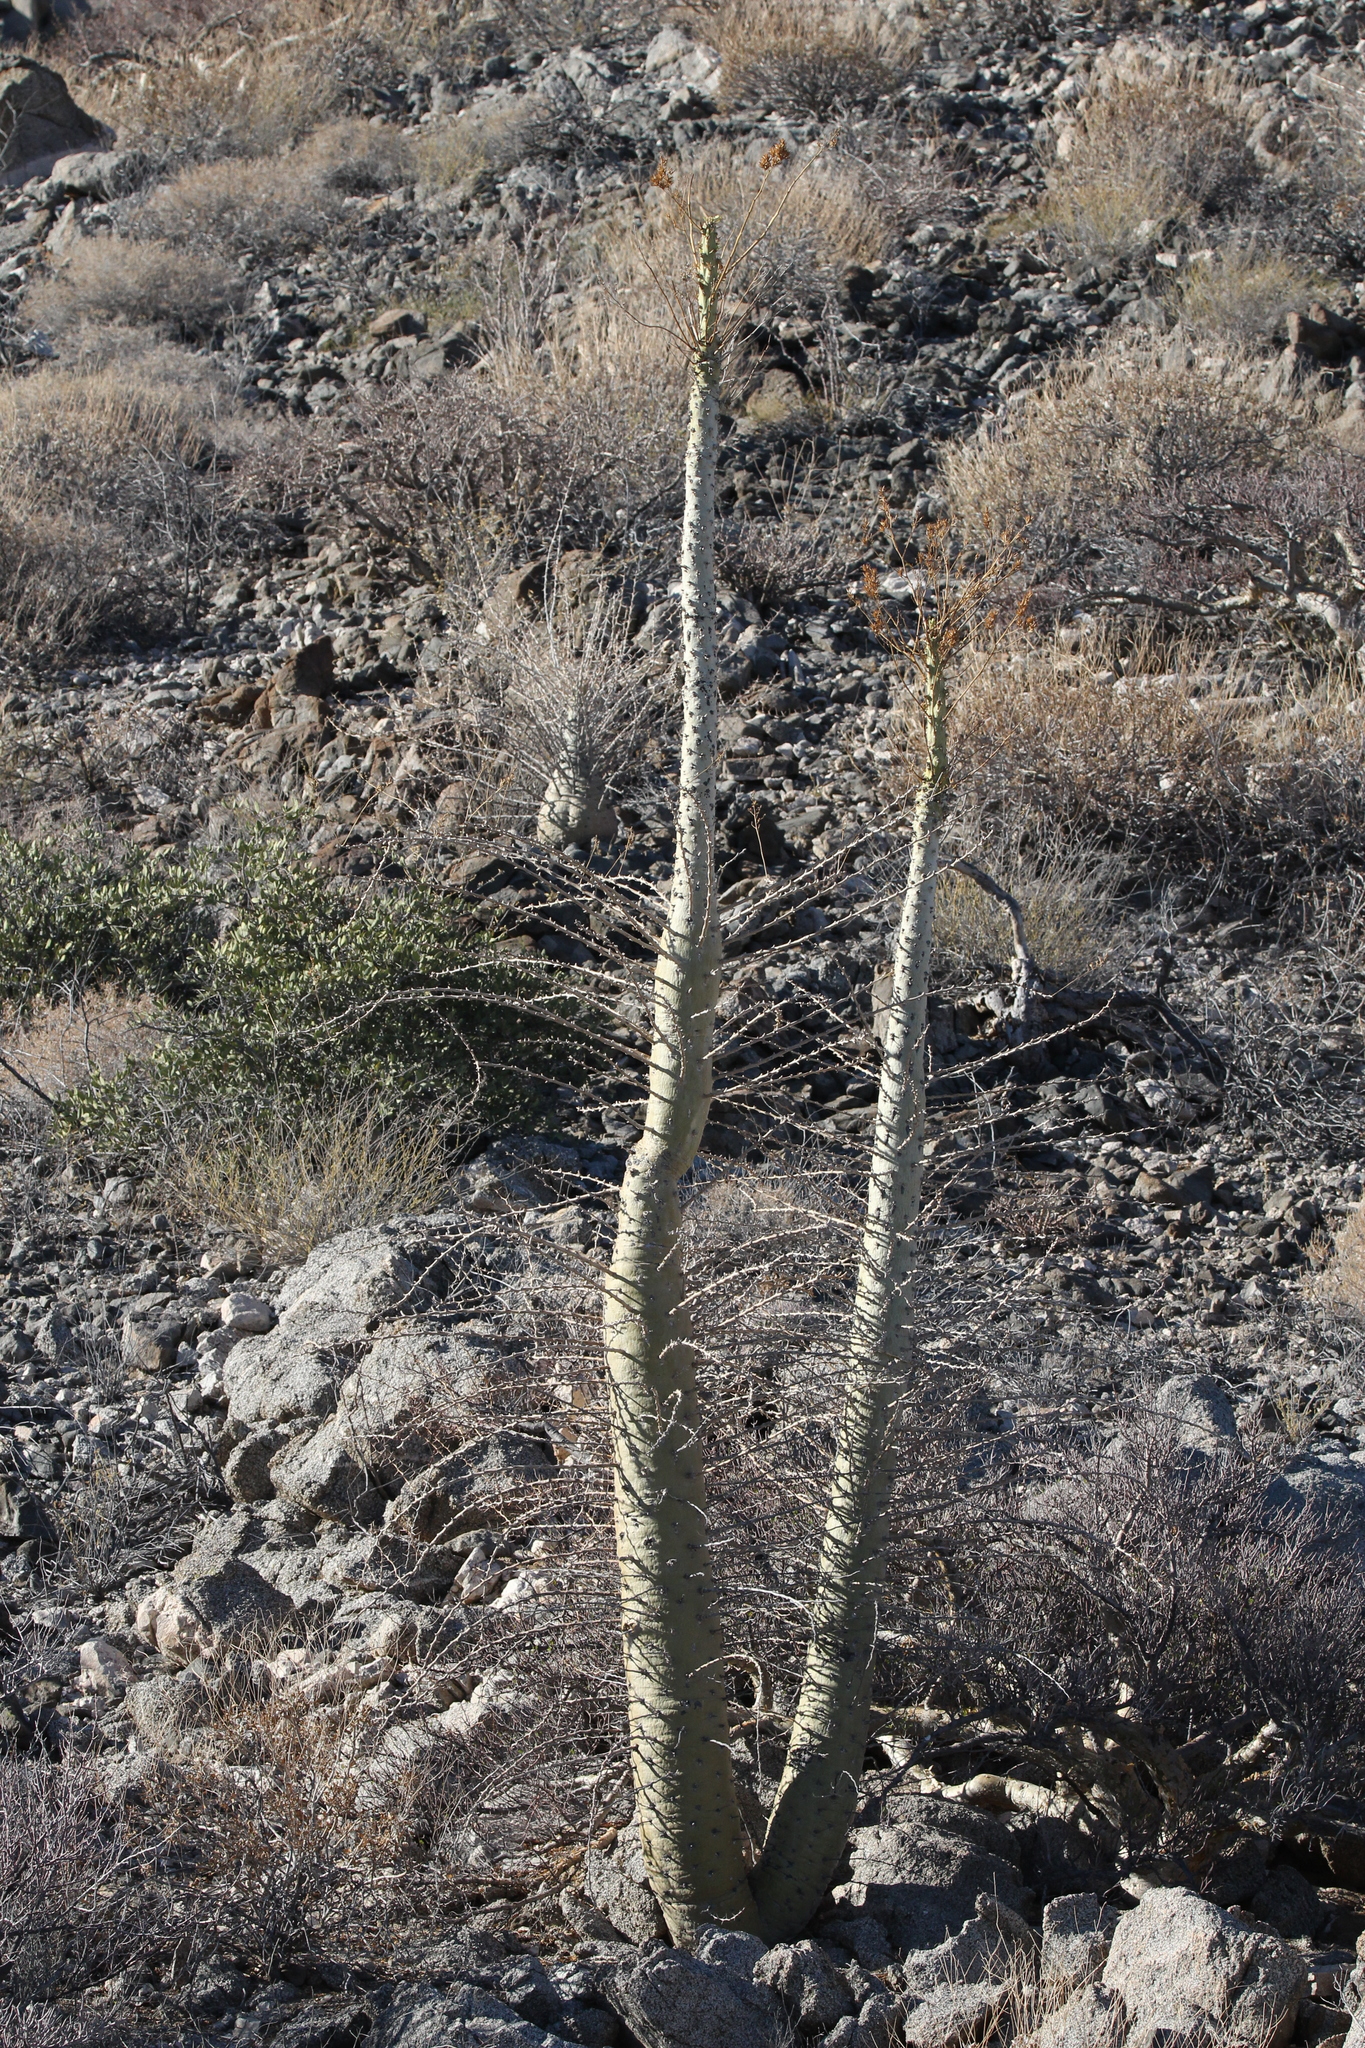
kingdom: Plantae
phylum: Tracheophyta
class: Magnoliopsida
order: Ericales
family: Fouquieriaceae
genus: Fouquieria
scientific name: Fouquieria columnaris
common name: Boojumtree
